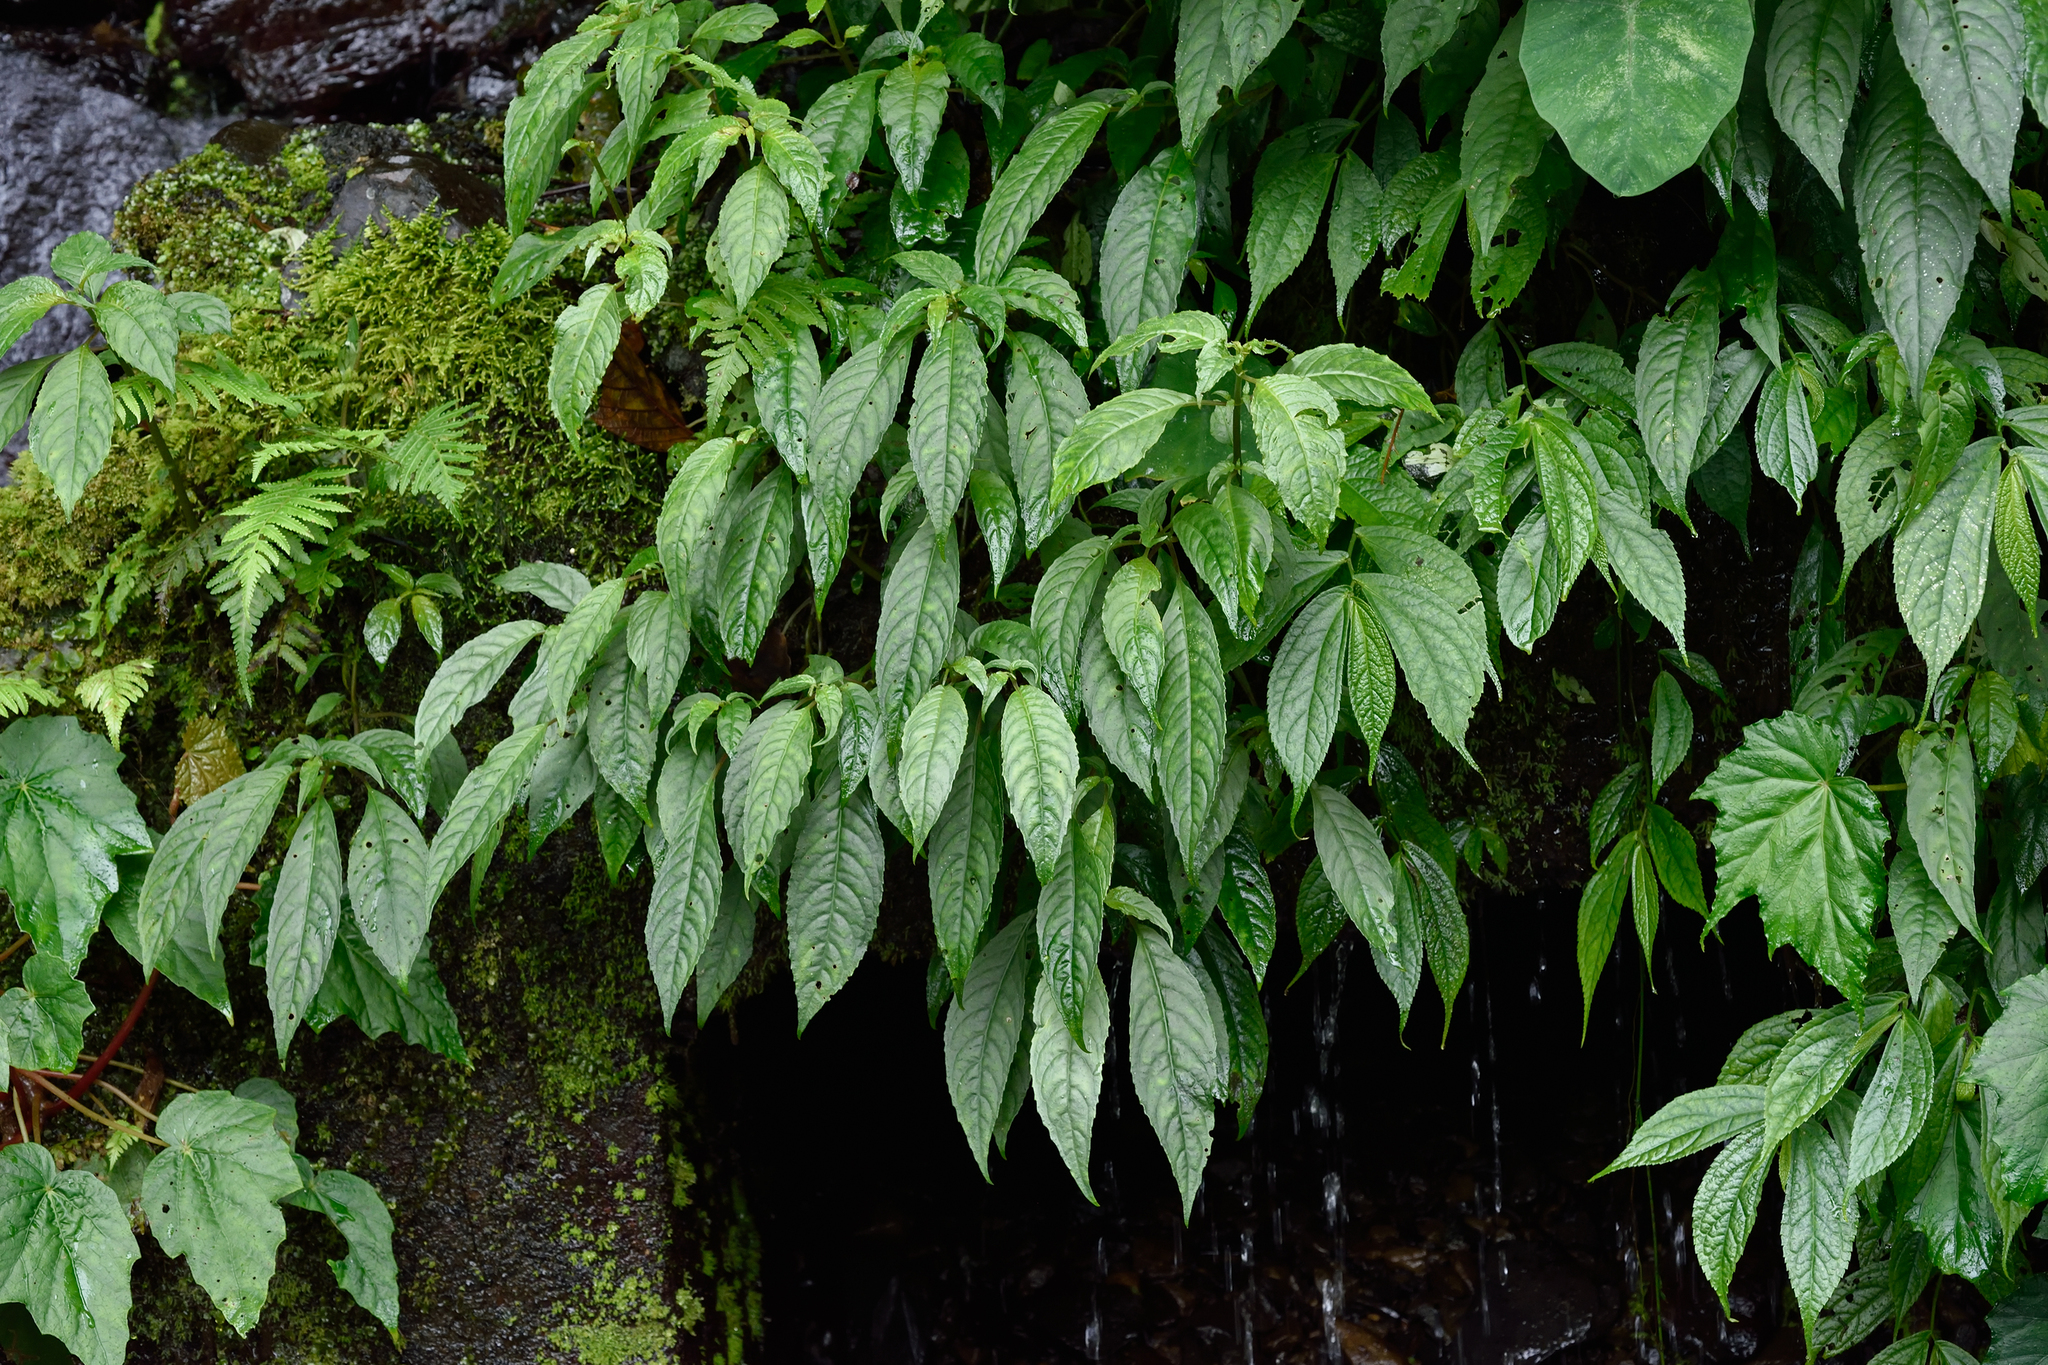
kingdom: Plantae
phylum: Tracheophyta
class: Magnoliopsida
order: Lamiales
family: Gesneriaceae
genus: Hemiboea
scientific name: Hemiboea bicornuta
